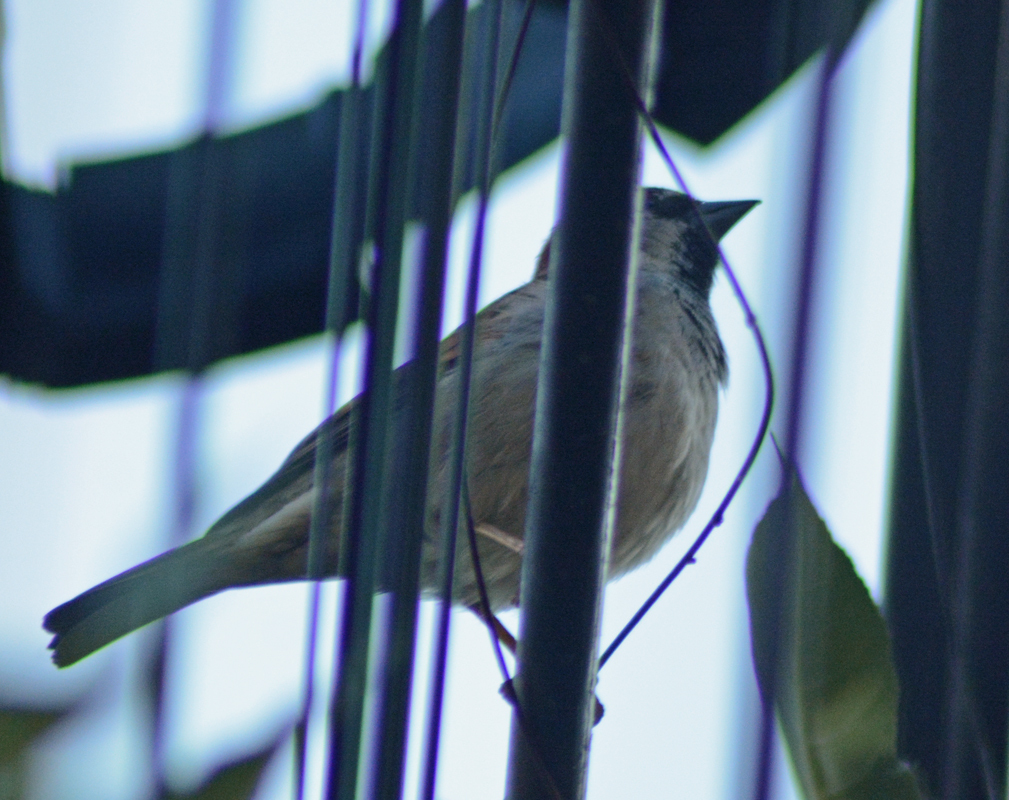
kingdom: Animalia
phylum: Chordata
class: Aves
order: Passeriformes
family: Passeridae
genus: Passer
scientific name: Passer domesticus
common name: House sparrow
